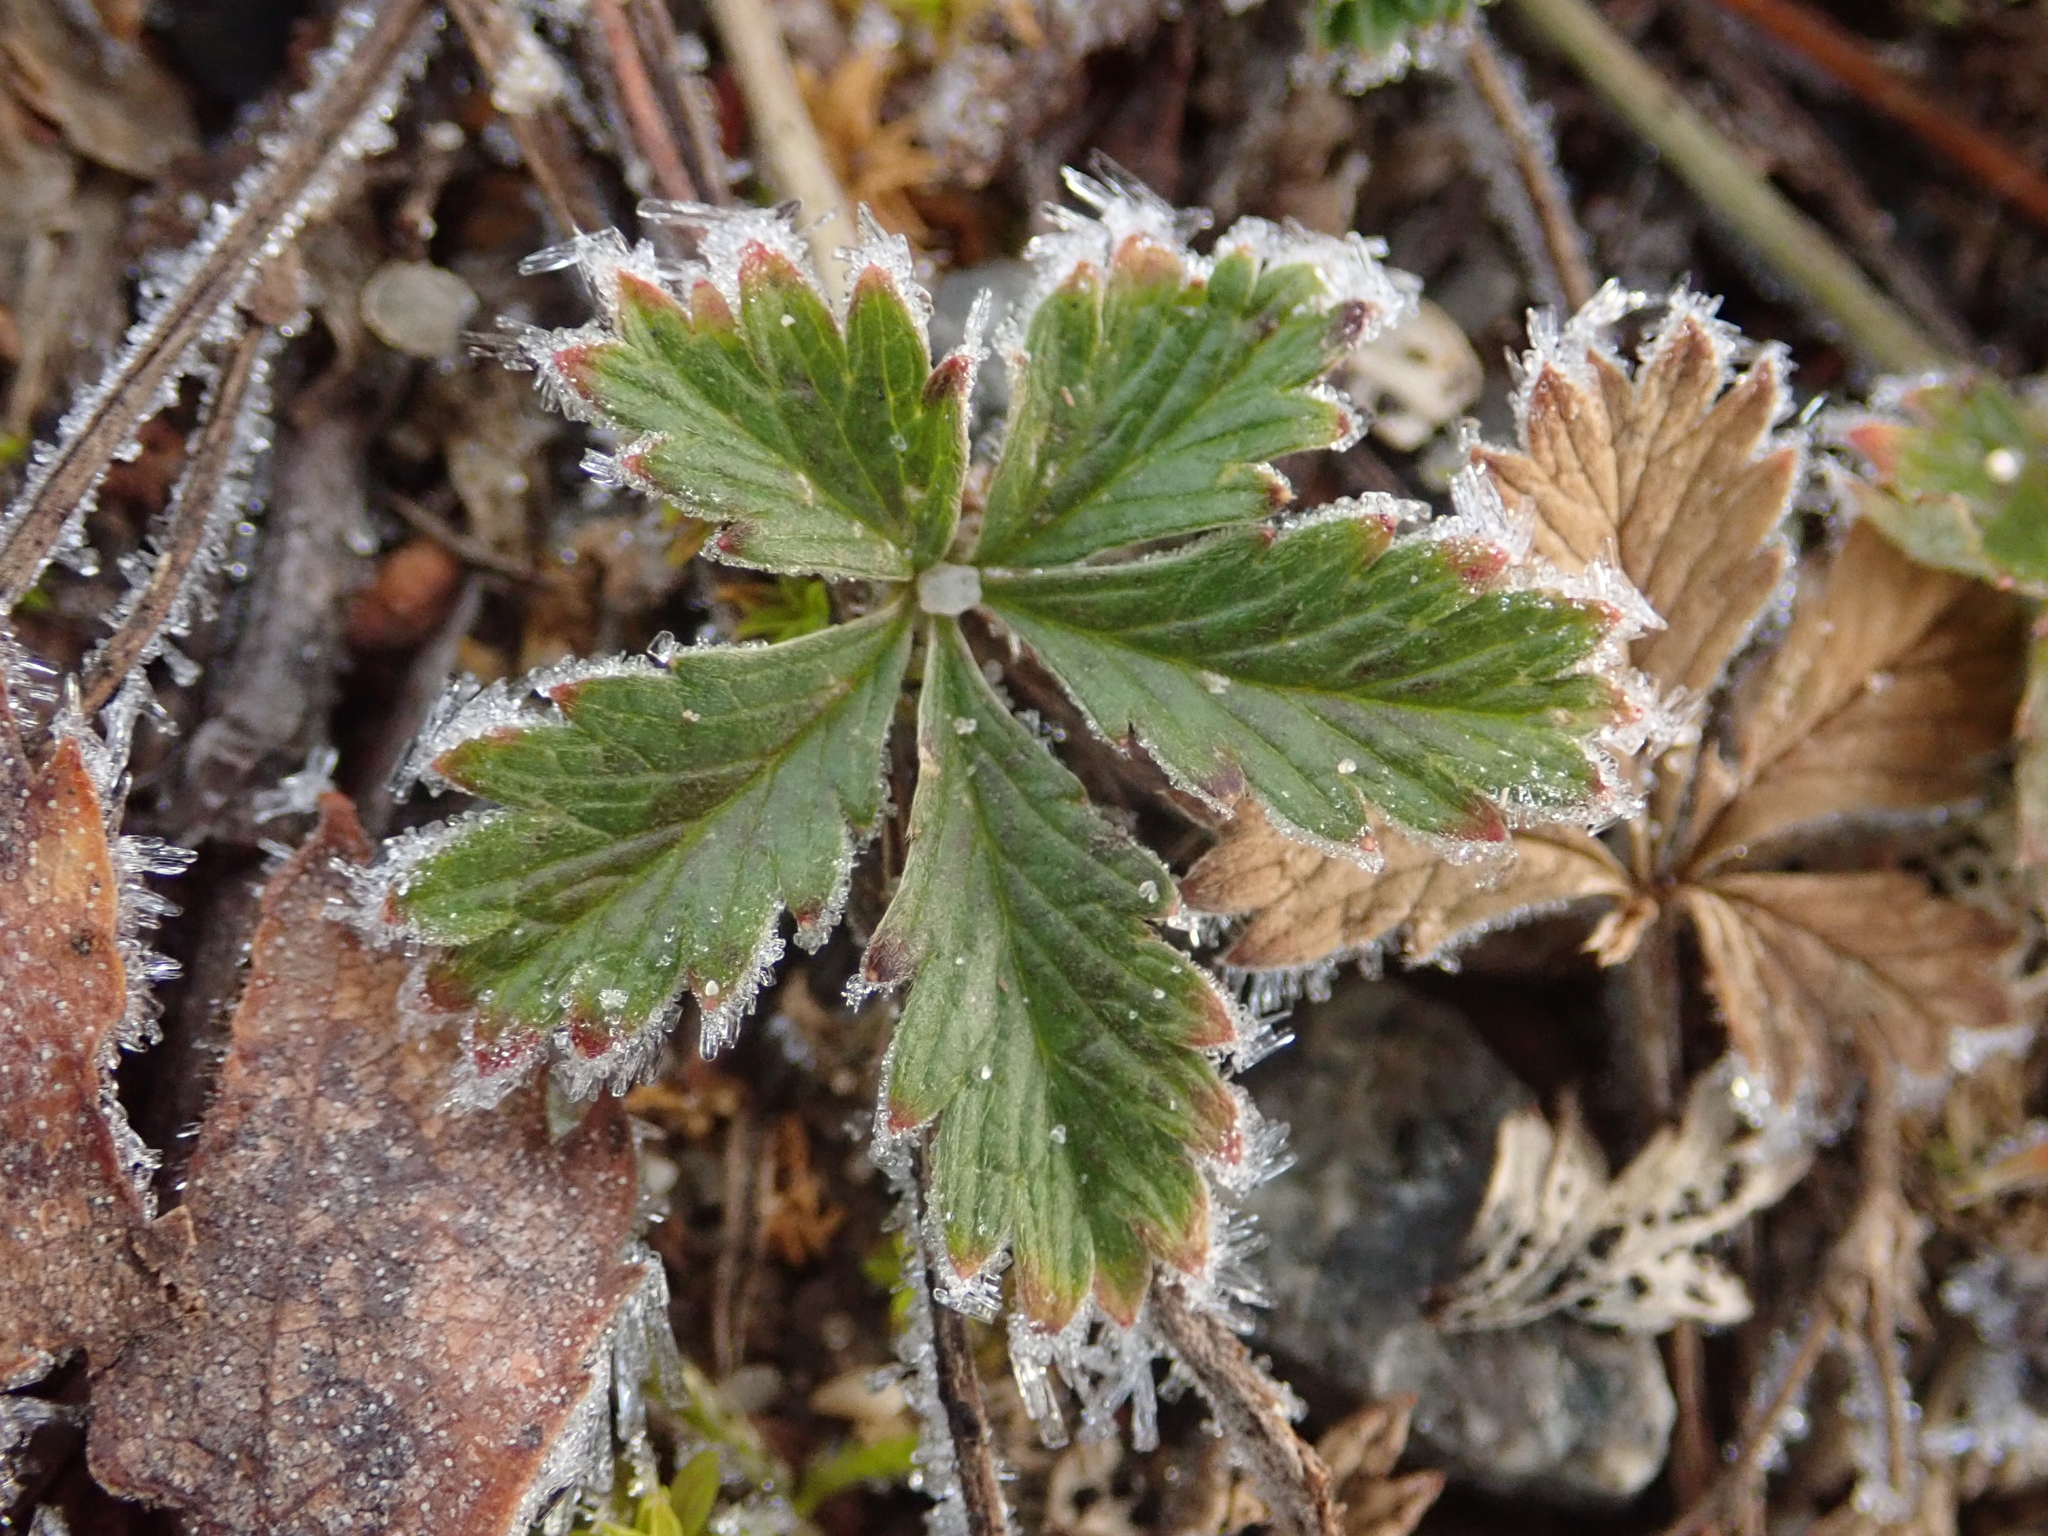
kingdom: Plantae
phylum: Tracheophyta
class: Magnoliopsida
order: Rosales
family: Rosaceae
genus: Potentilla
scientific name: Potentilla argentea
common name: Hoary cinquefoil
